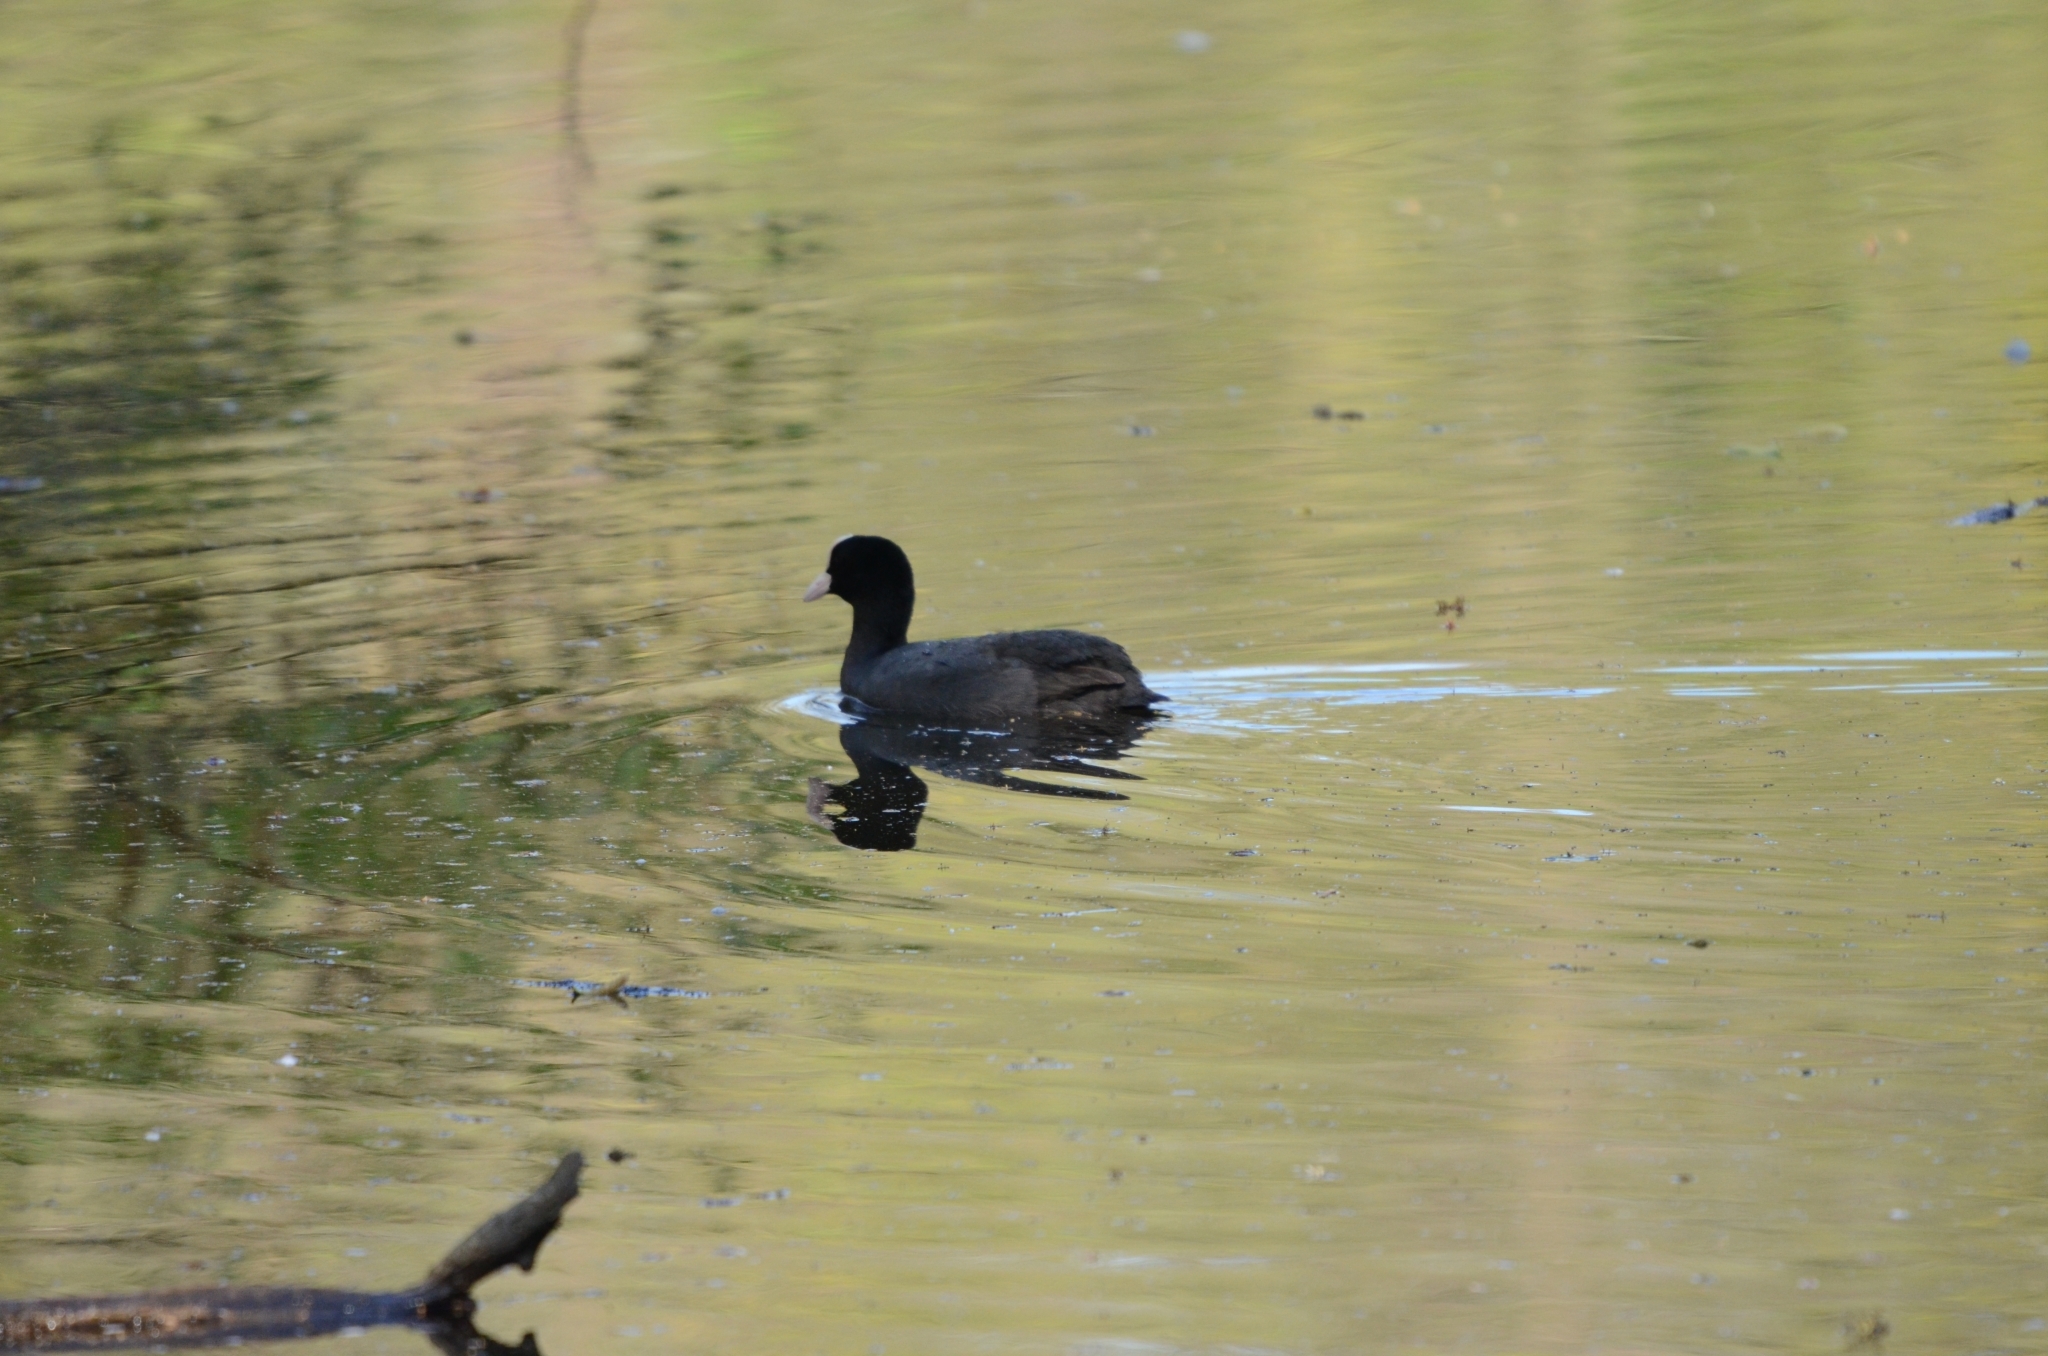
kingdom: Animalia
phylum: Chordata
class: Aves
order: Gruiformes
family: Rallidae
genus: Fulica
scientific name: Fulica atra
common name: Eurasian coot
